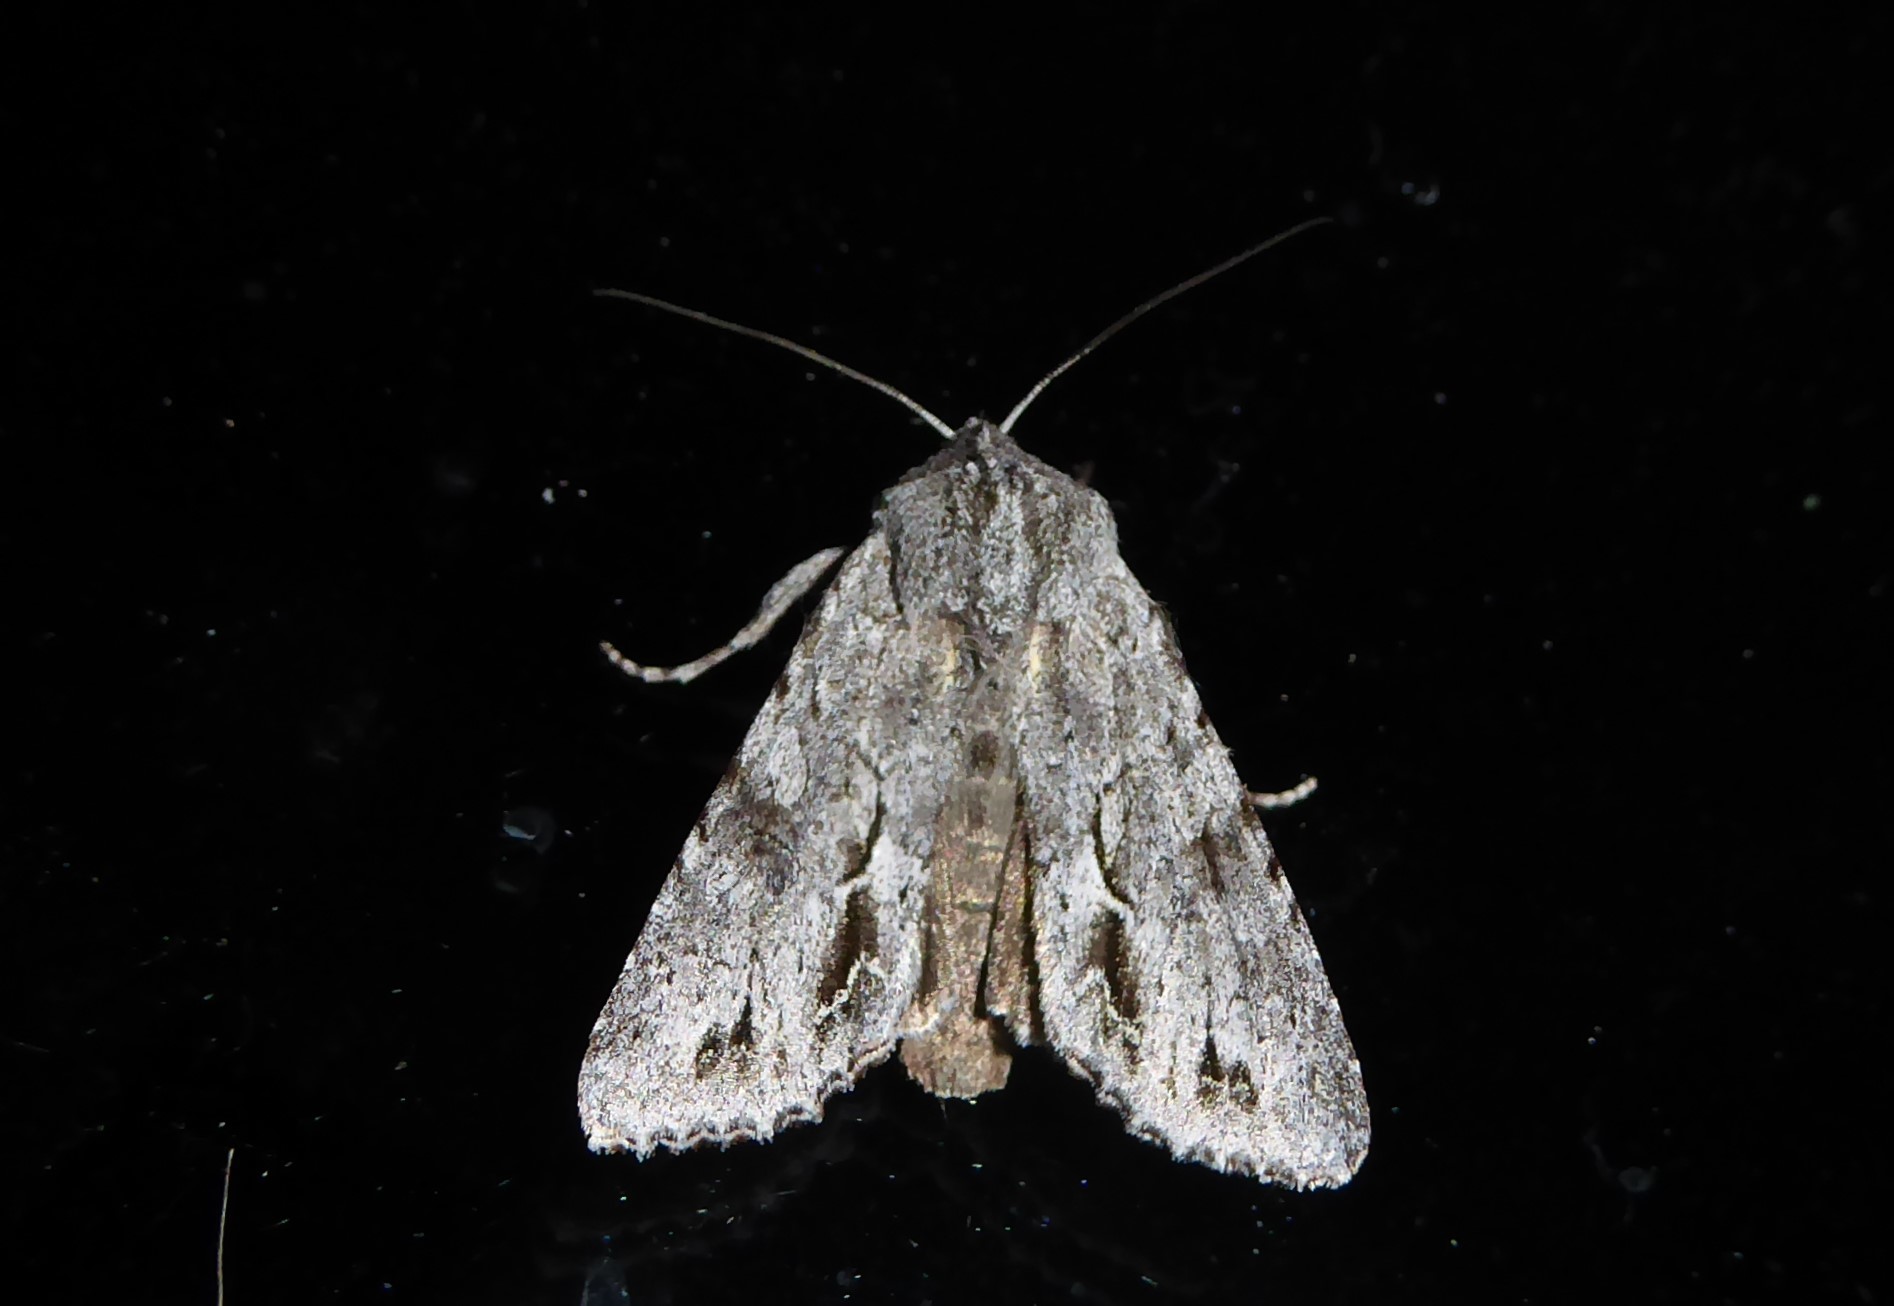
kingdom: Animalia
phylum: Arthropoda
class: Insecta
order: Lepidoptera
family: Noctuidae
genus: Ichneutica
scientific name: Ichneutica
